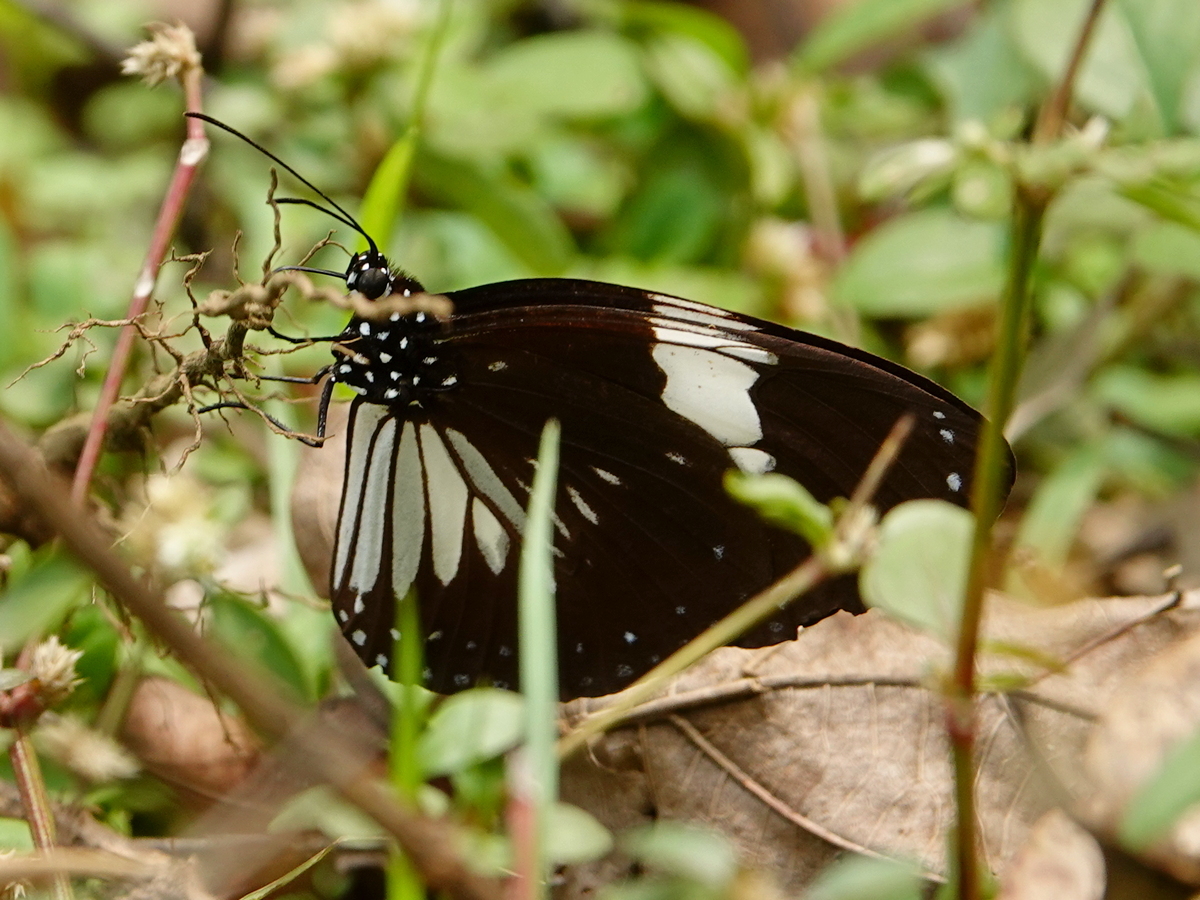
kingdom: Animalia
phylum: Arthropoda
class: Insecta
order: Lepidoptera
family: Nymphalidae
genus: Euploea
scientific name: Euploea radamanthus
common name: Magpie crow butterfly
